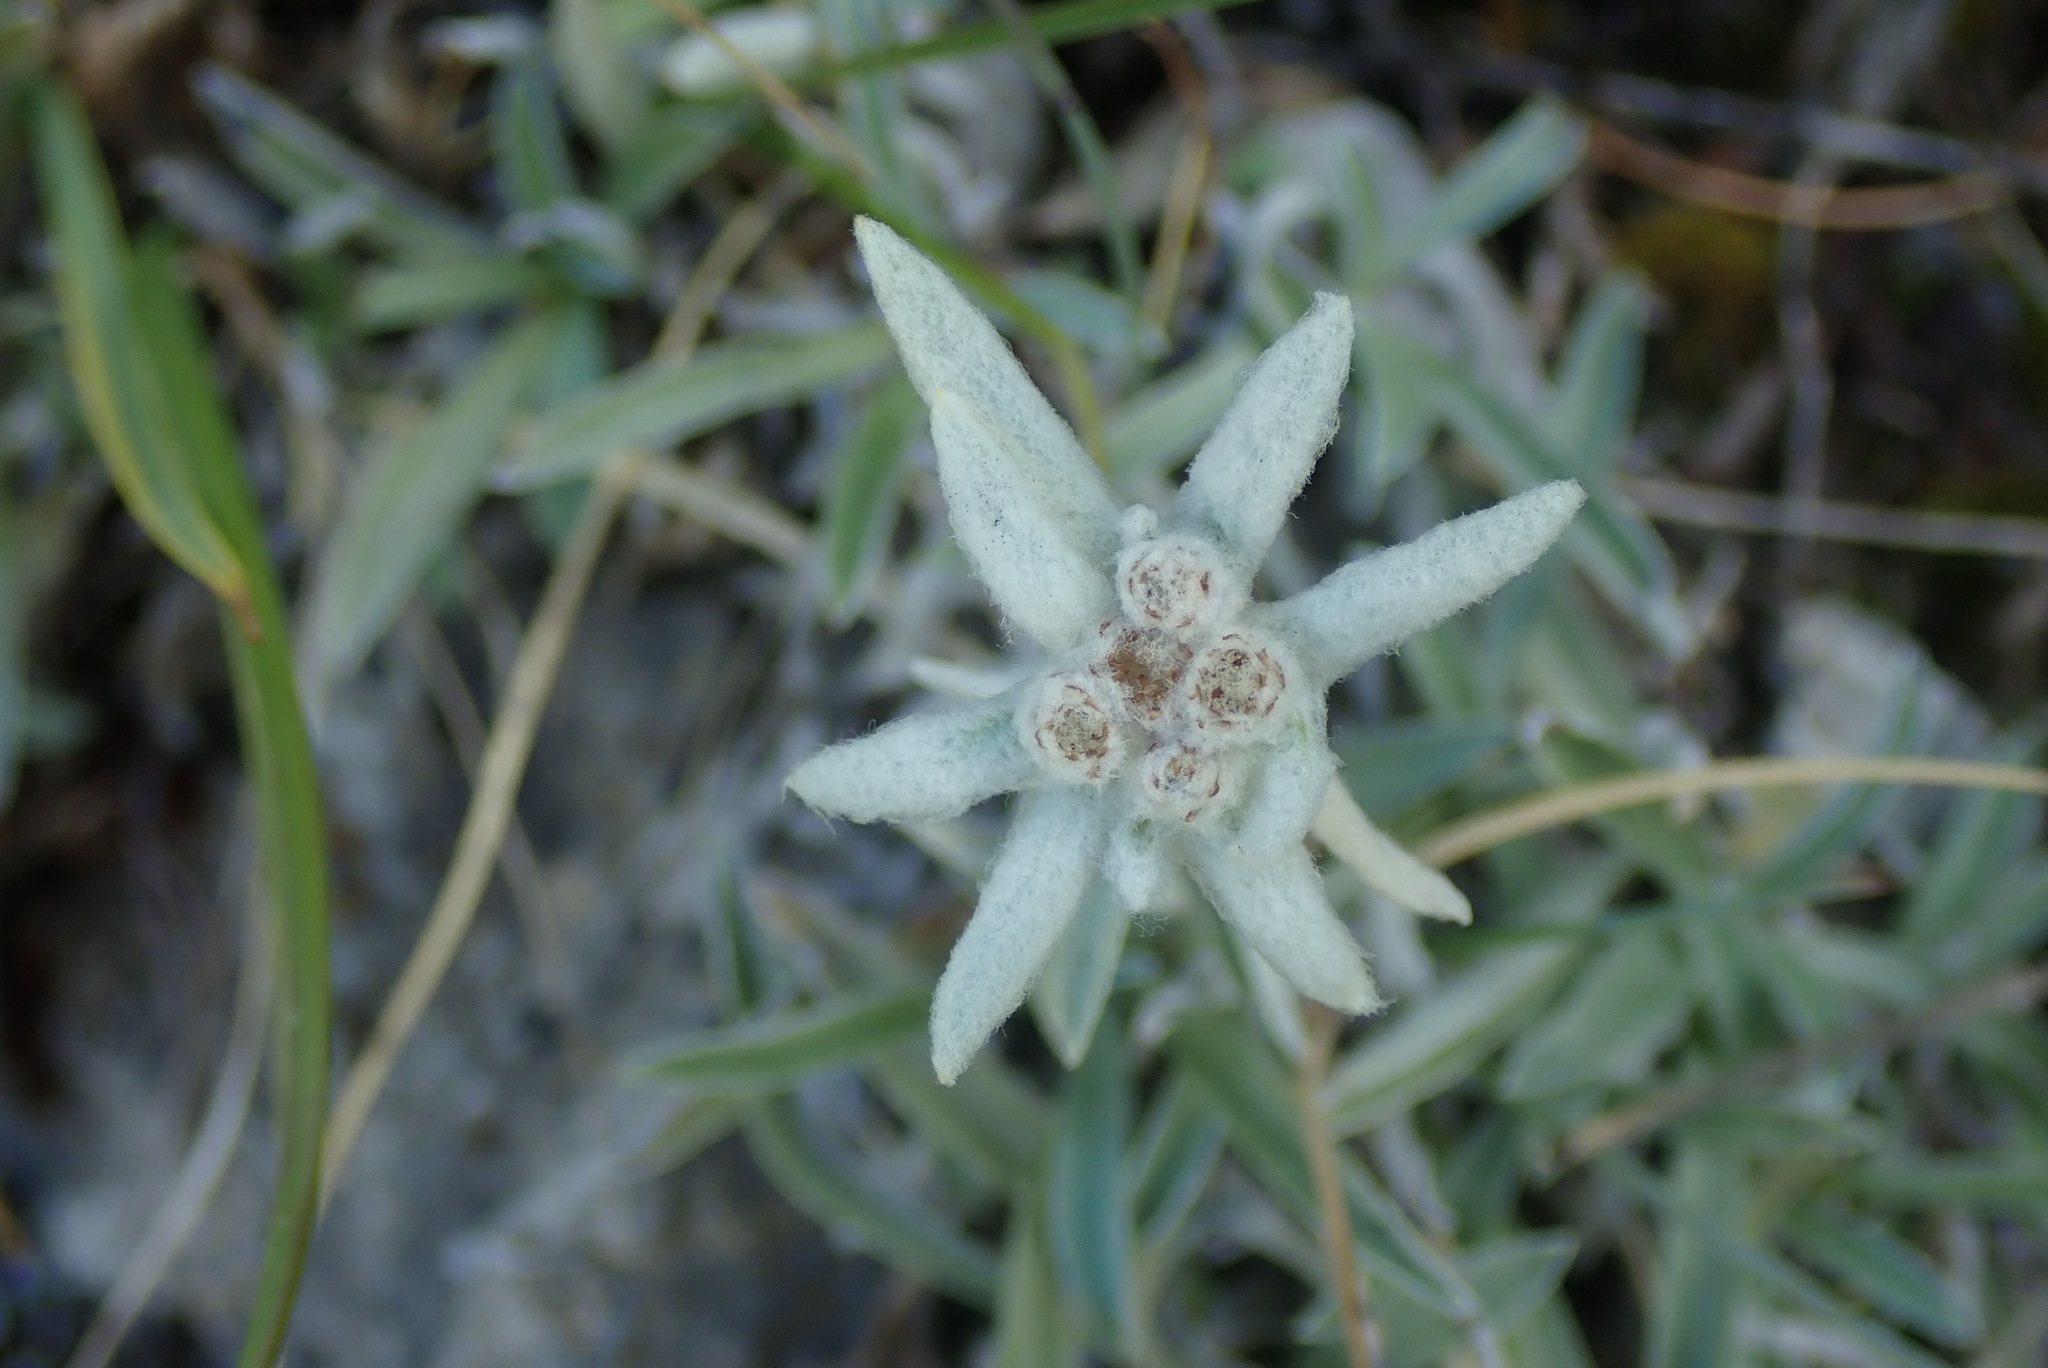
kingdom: Plantae
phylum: Tracheophyta
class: Magnoliopsida
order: Asterales
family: Asteraceae
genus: Leontopodium
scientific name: Leontopodium nivale
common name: Edelweiss
